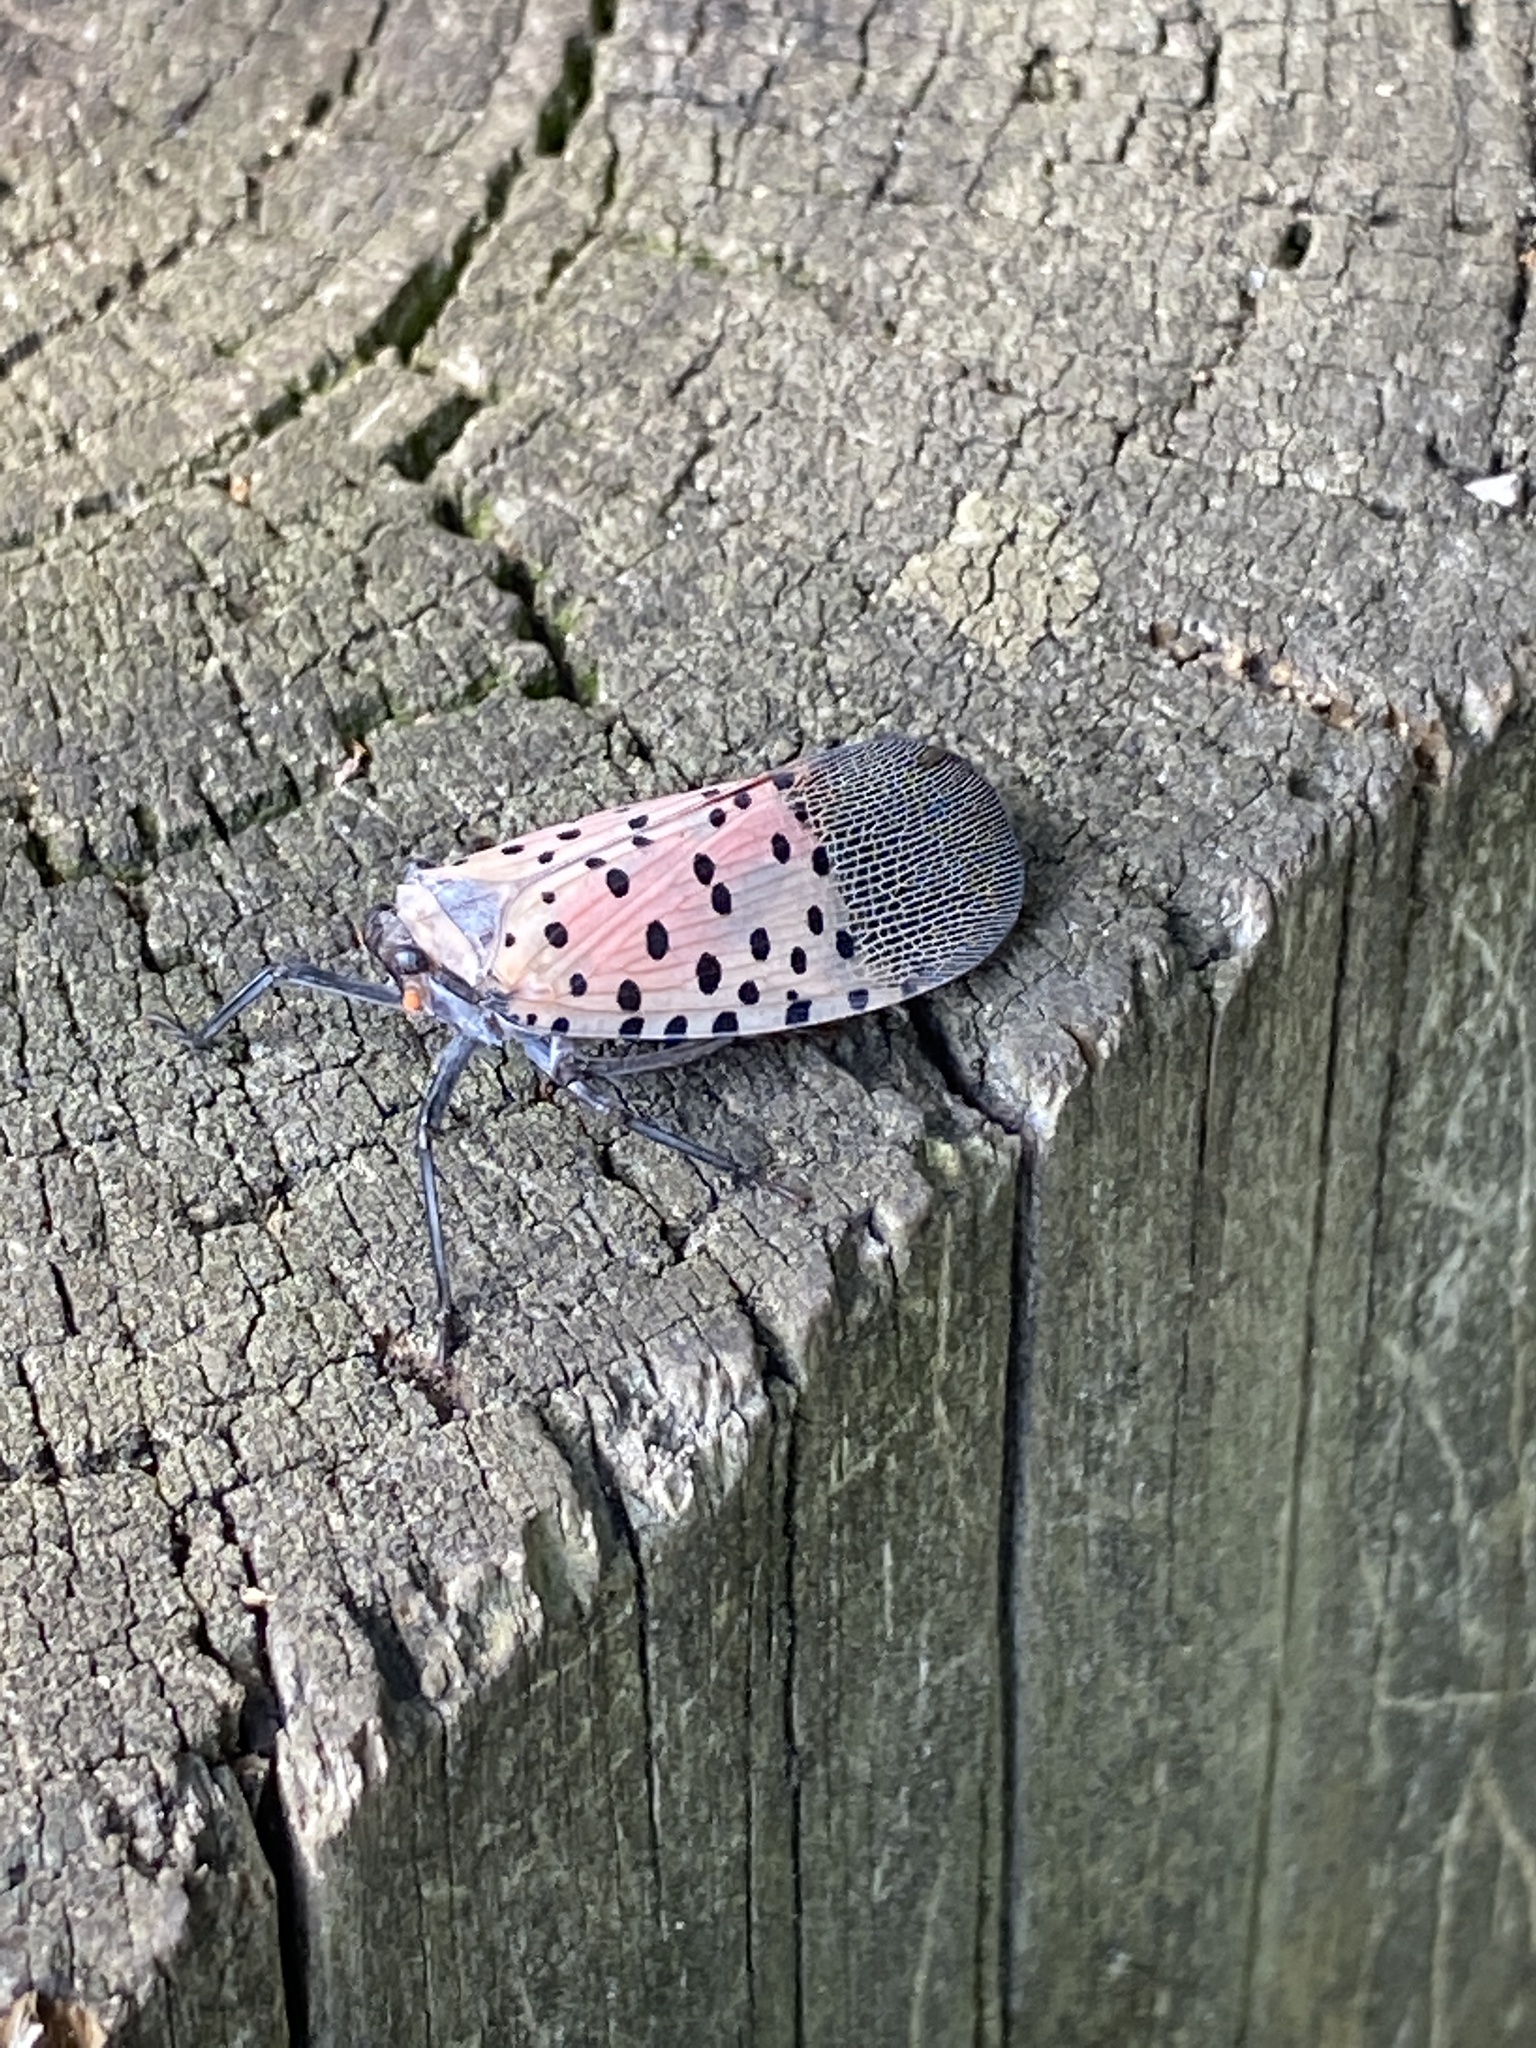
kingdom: Animalia
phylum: Arthropoda
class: Insecta
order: Hemiptera
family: Fulgoridae
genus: Lycorma
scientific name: Lycorma delicatula
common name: Spotted lanternfly
